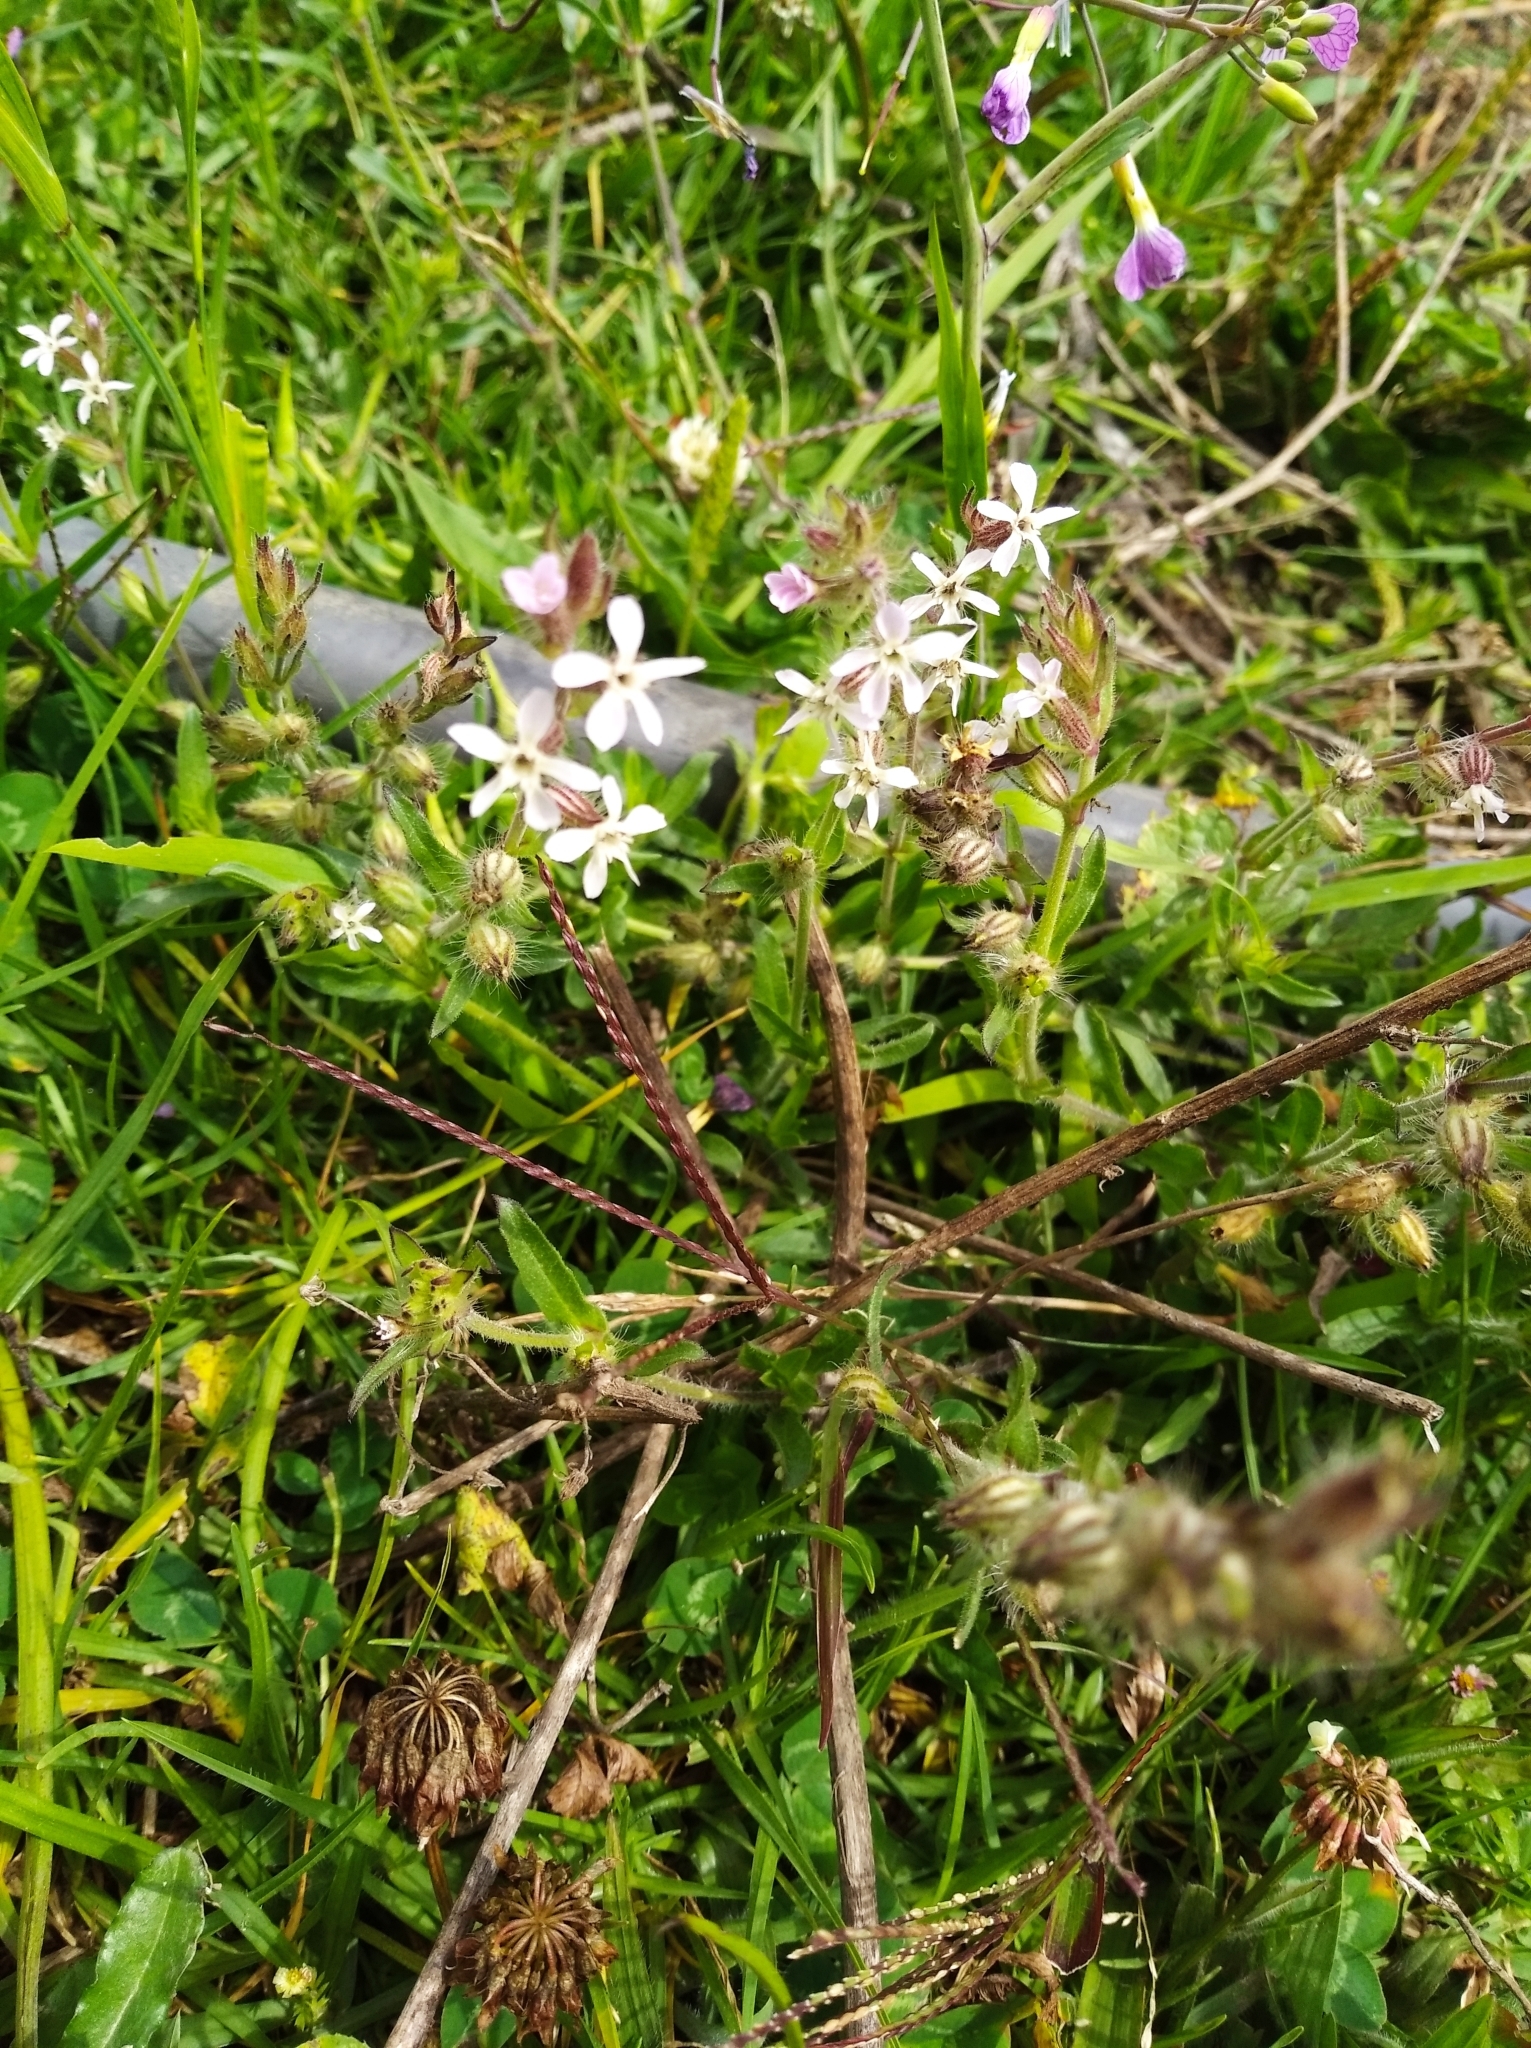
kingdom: Plantae
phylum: Tracheophyta
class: Magnoliopsida
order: Caryophyllales
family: Caryophyllaceae
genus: Silene
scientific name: Silene gallica
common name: Small-flowered catchfly
